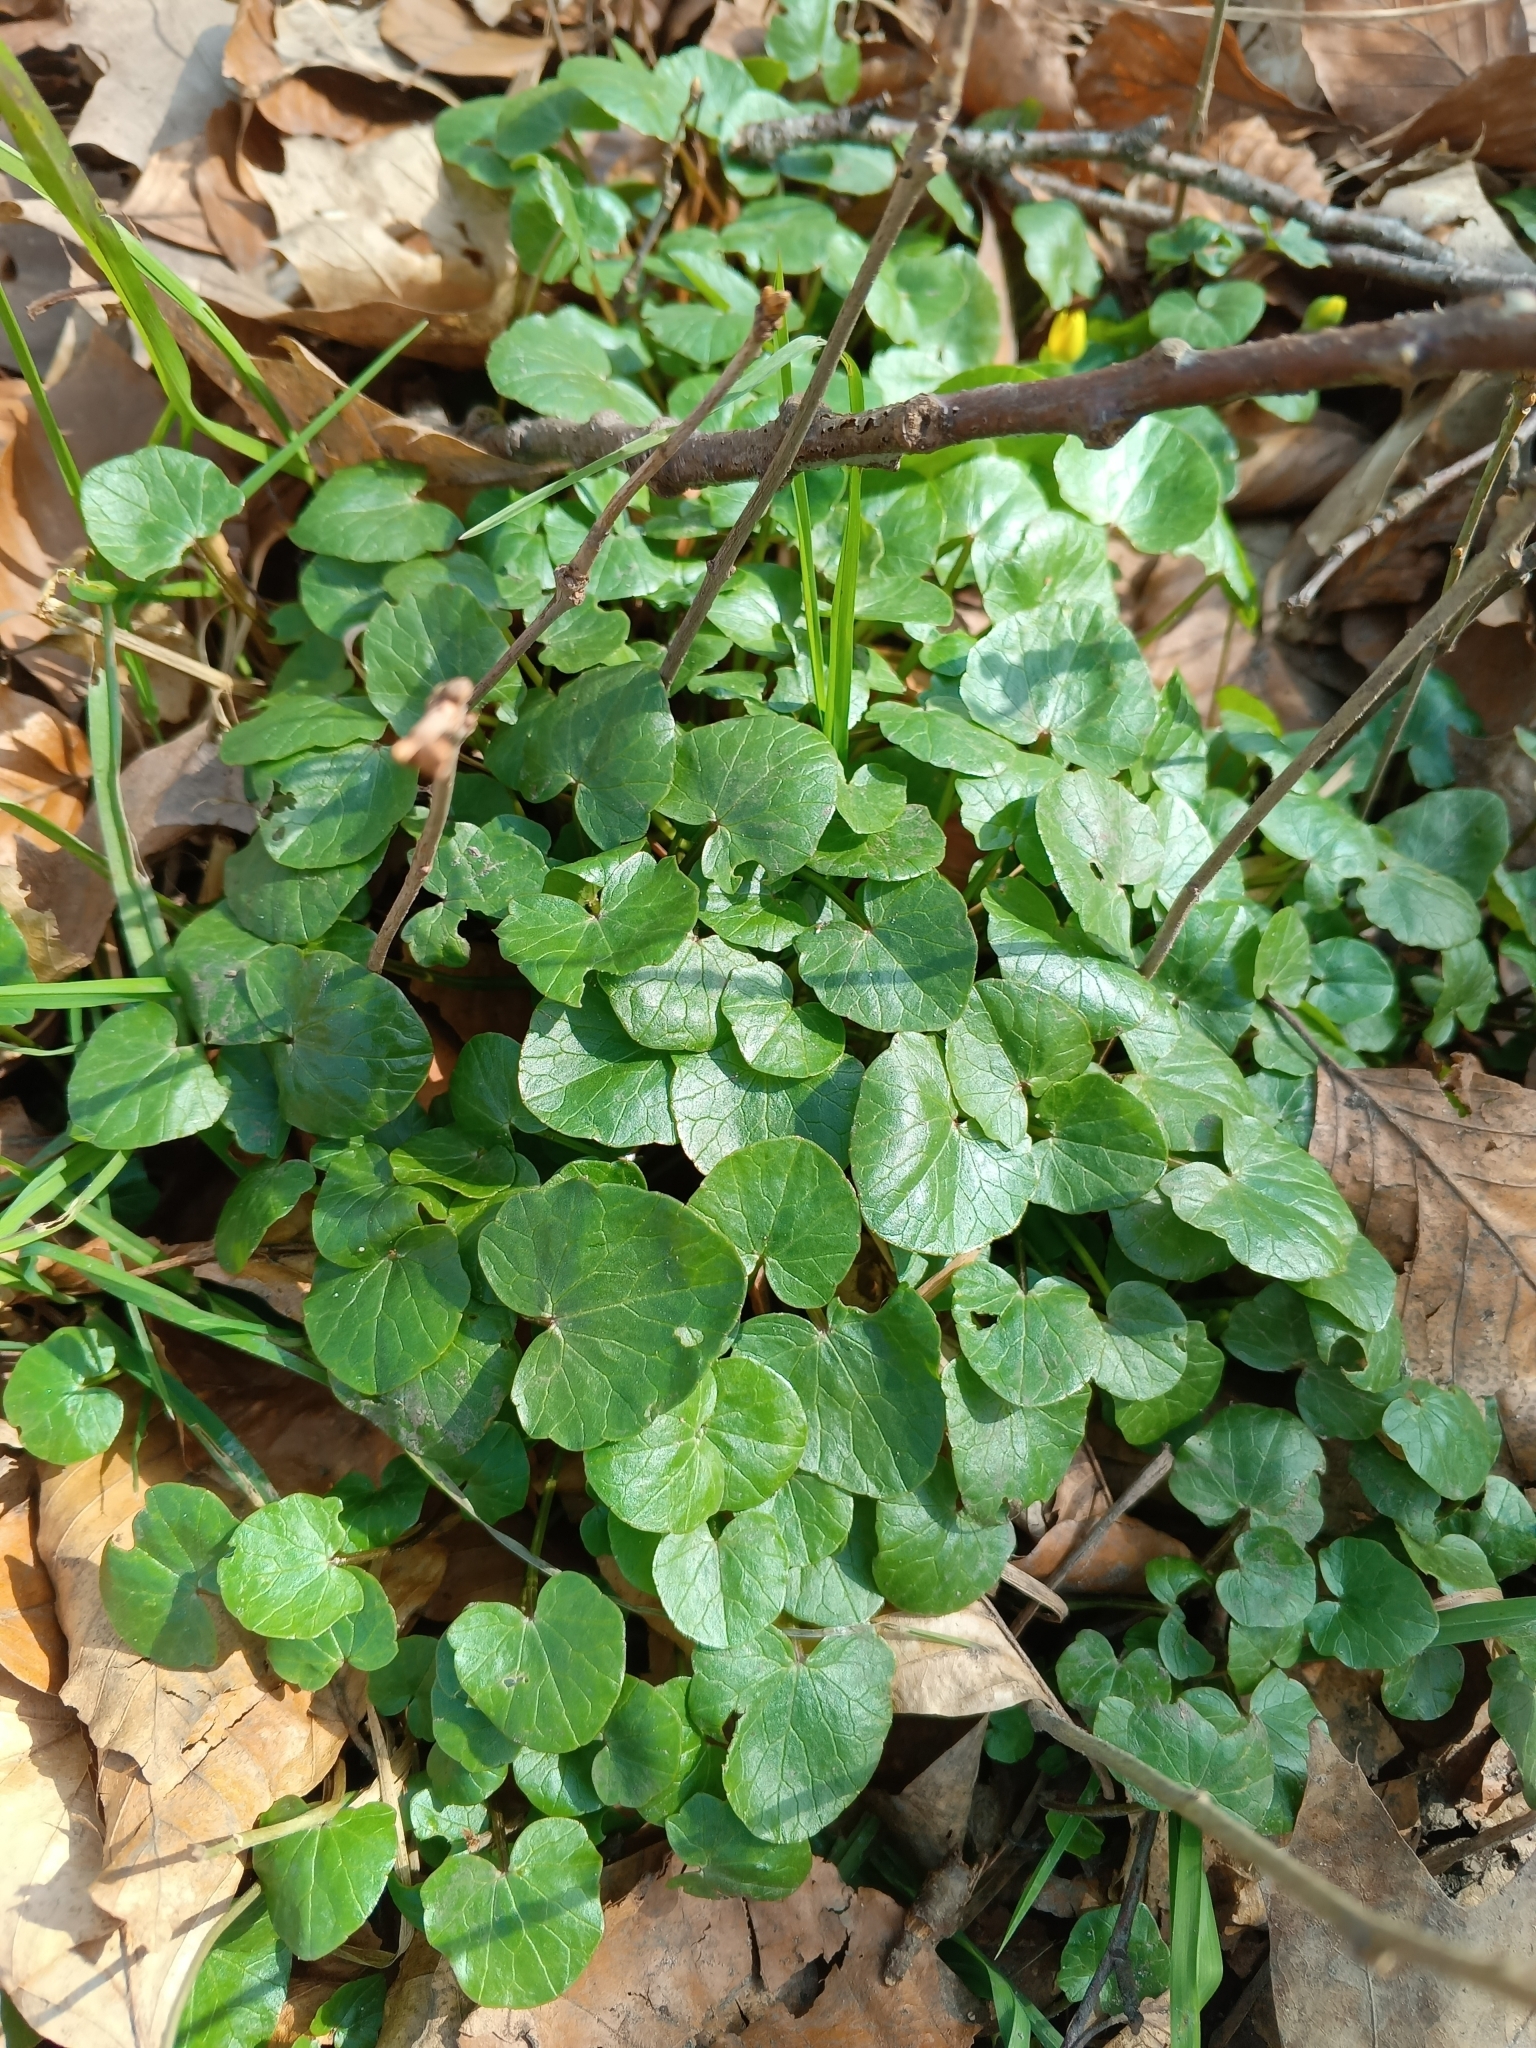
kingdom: Plantae
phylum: Tracheophyta
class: Magnoliopsida
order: Ranunculales
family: Ranunculaceae
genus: Ficaria
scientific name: Ficaria verna
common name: Lesser celandine
